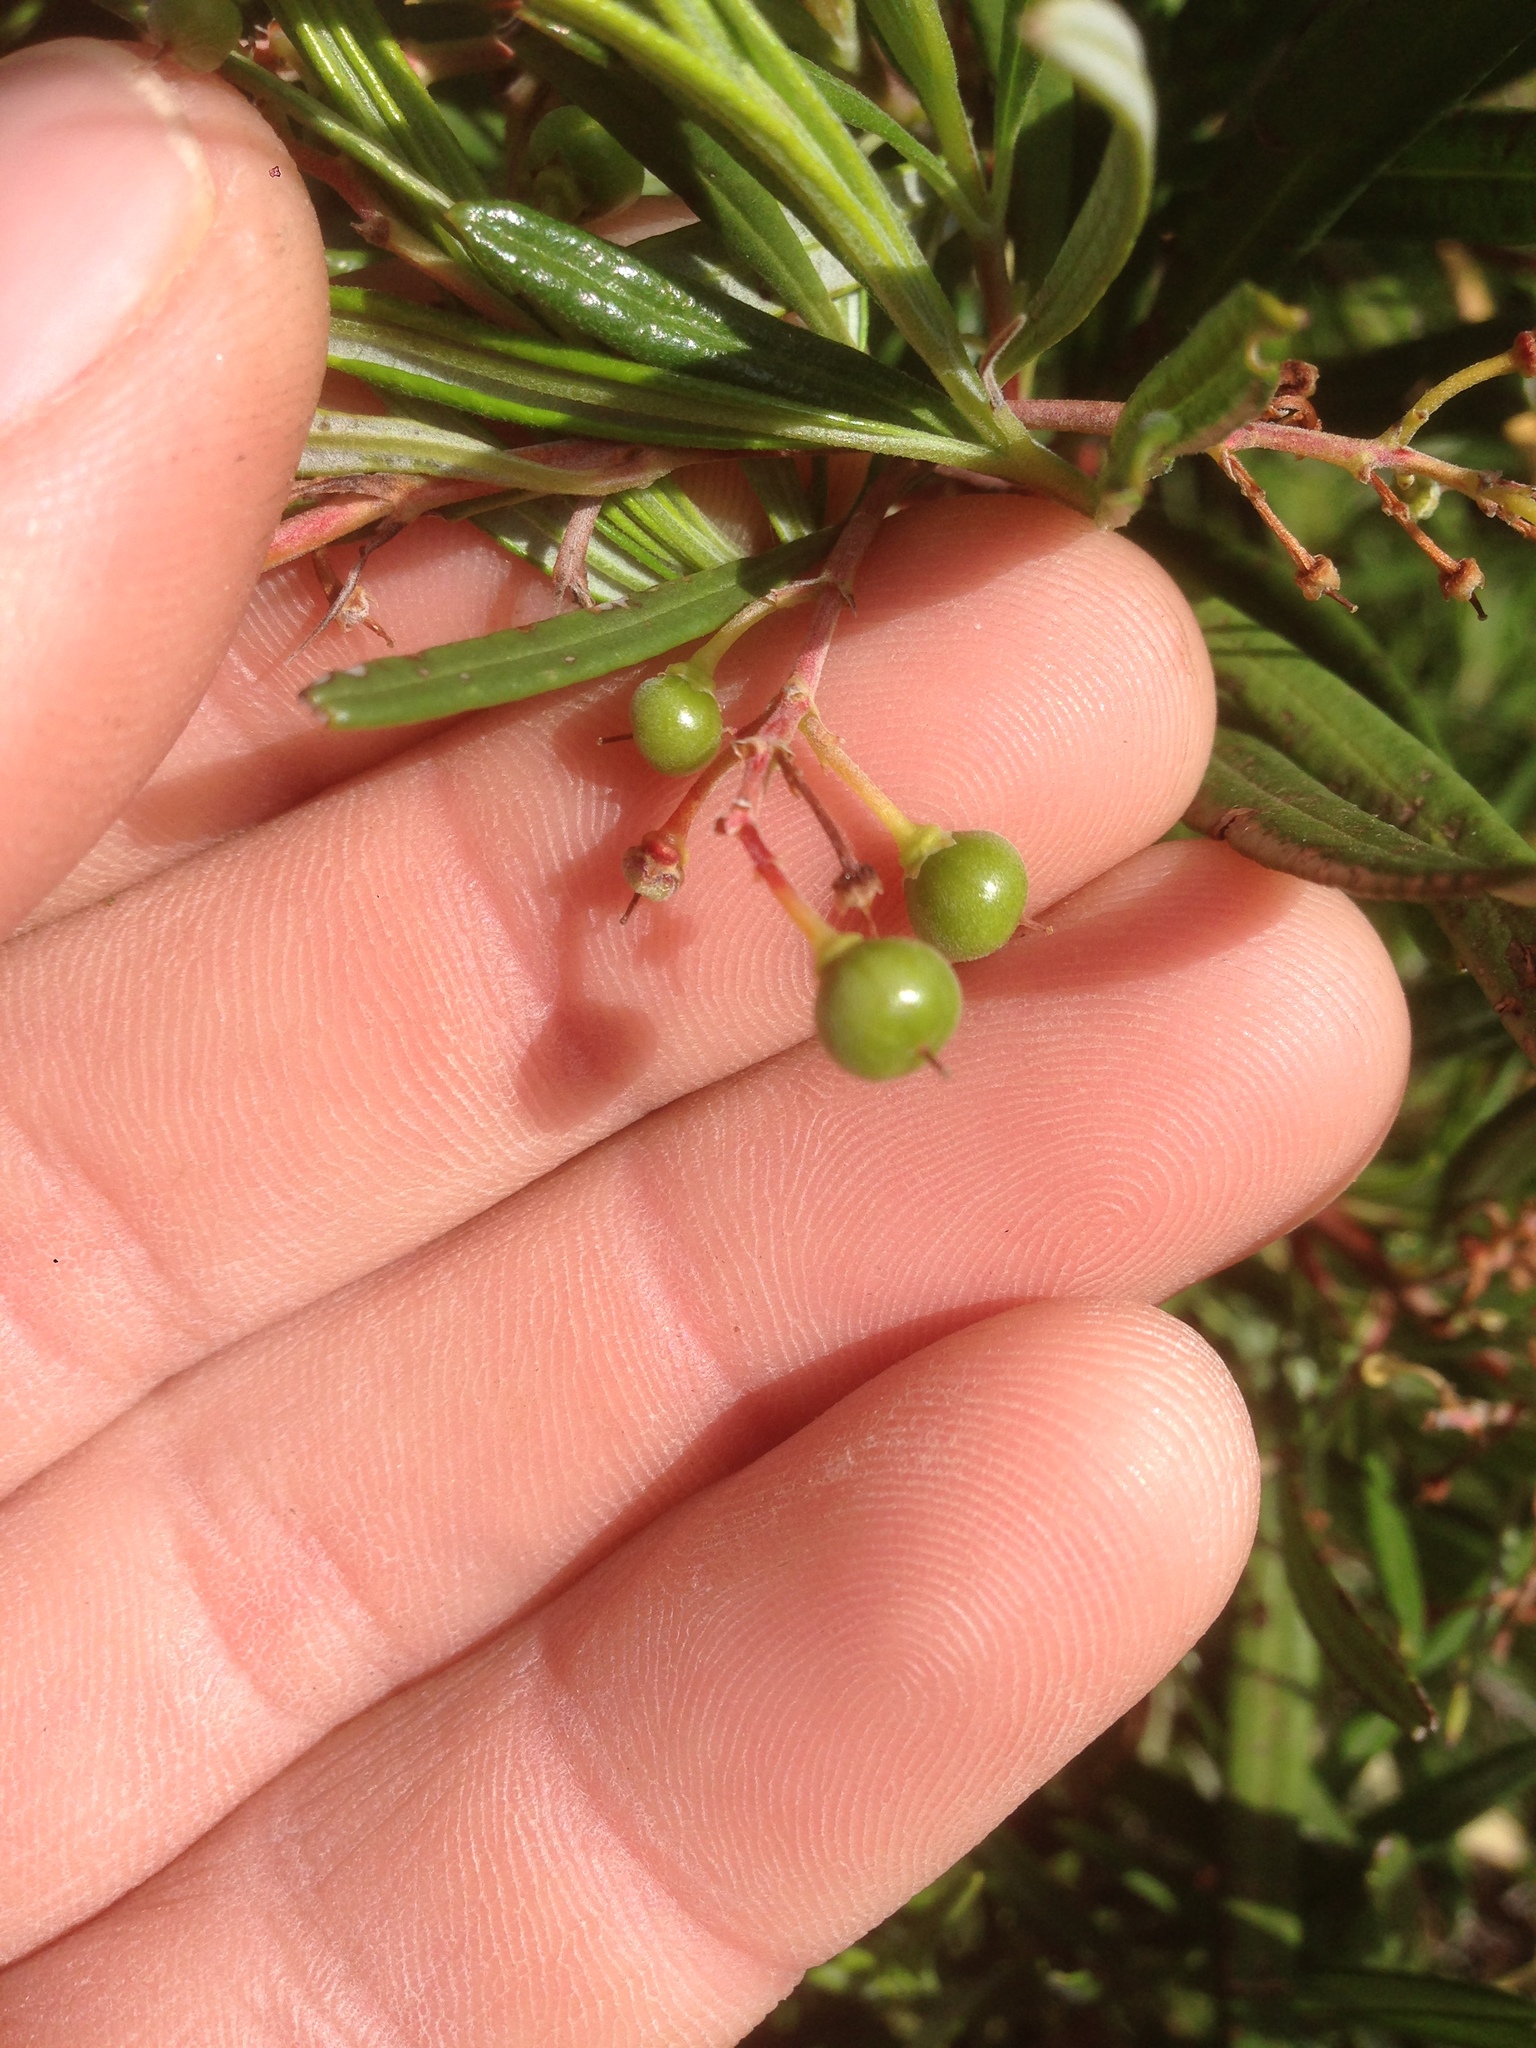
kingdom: Plantae
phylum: Tracheophyta
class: Magnoliopsida
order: Ericales
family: Ericaceae
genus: Ornithostaphylos
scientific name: Ornithostaphylos oppositifolia
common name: Baja california birdbush
